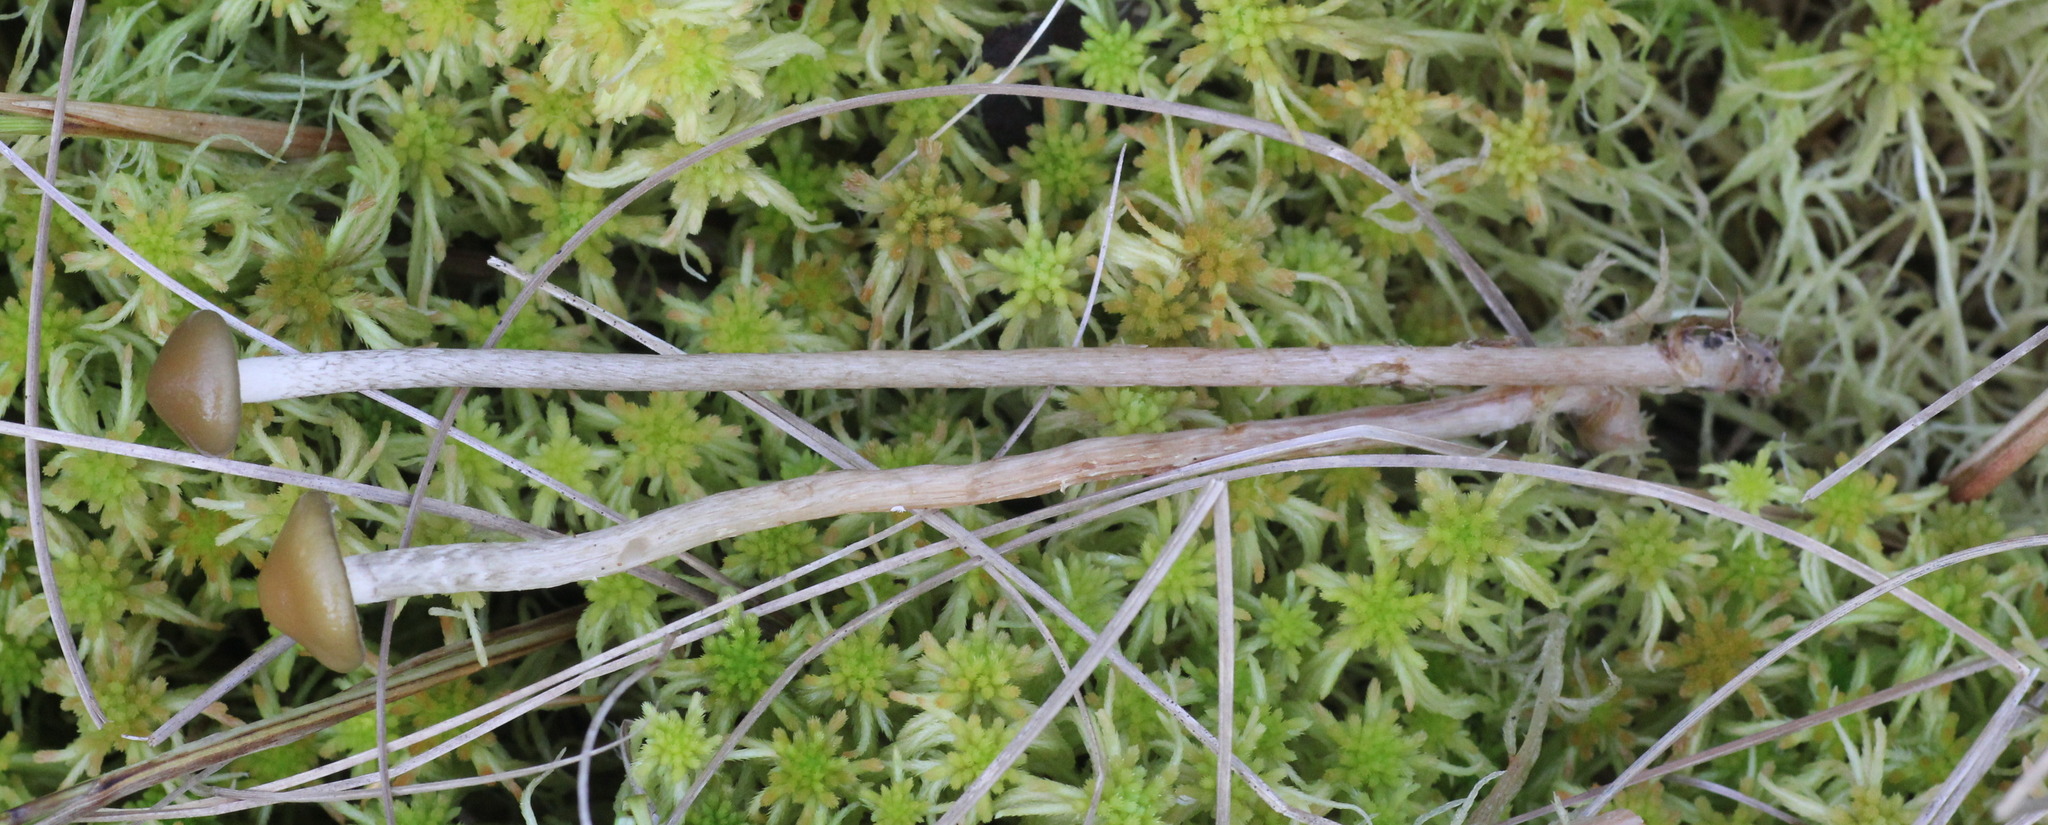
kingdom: Fungi
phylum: Basidiomycota
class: Agaricomycetes
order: Agaricales
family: Strophariaceae
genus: Bogbodia
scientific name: Bogbodia uda
